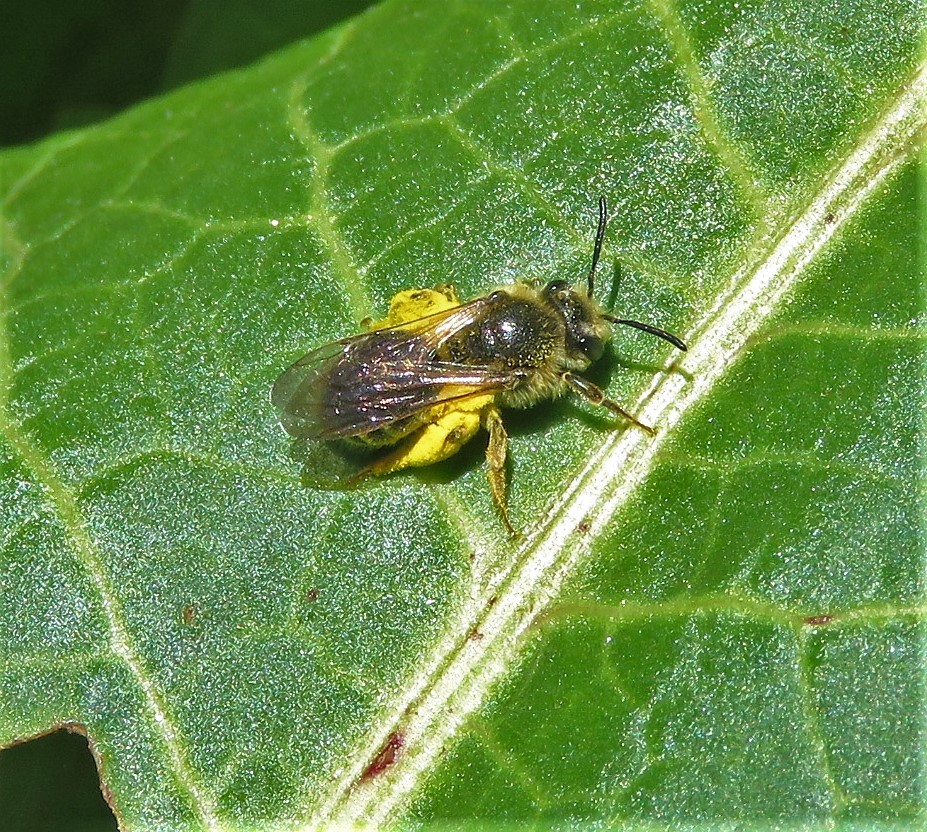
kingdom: Animalia
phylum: Arthropoda
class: Insecta
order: Hymenoptera
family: Andrenidae
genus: Andrena
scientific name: Andrena
